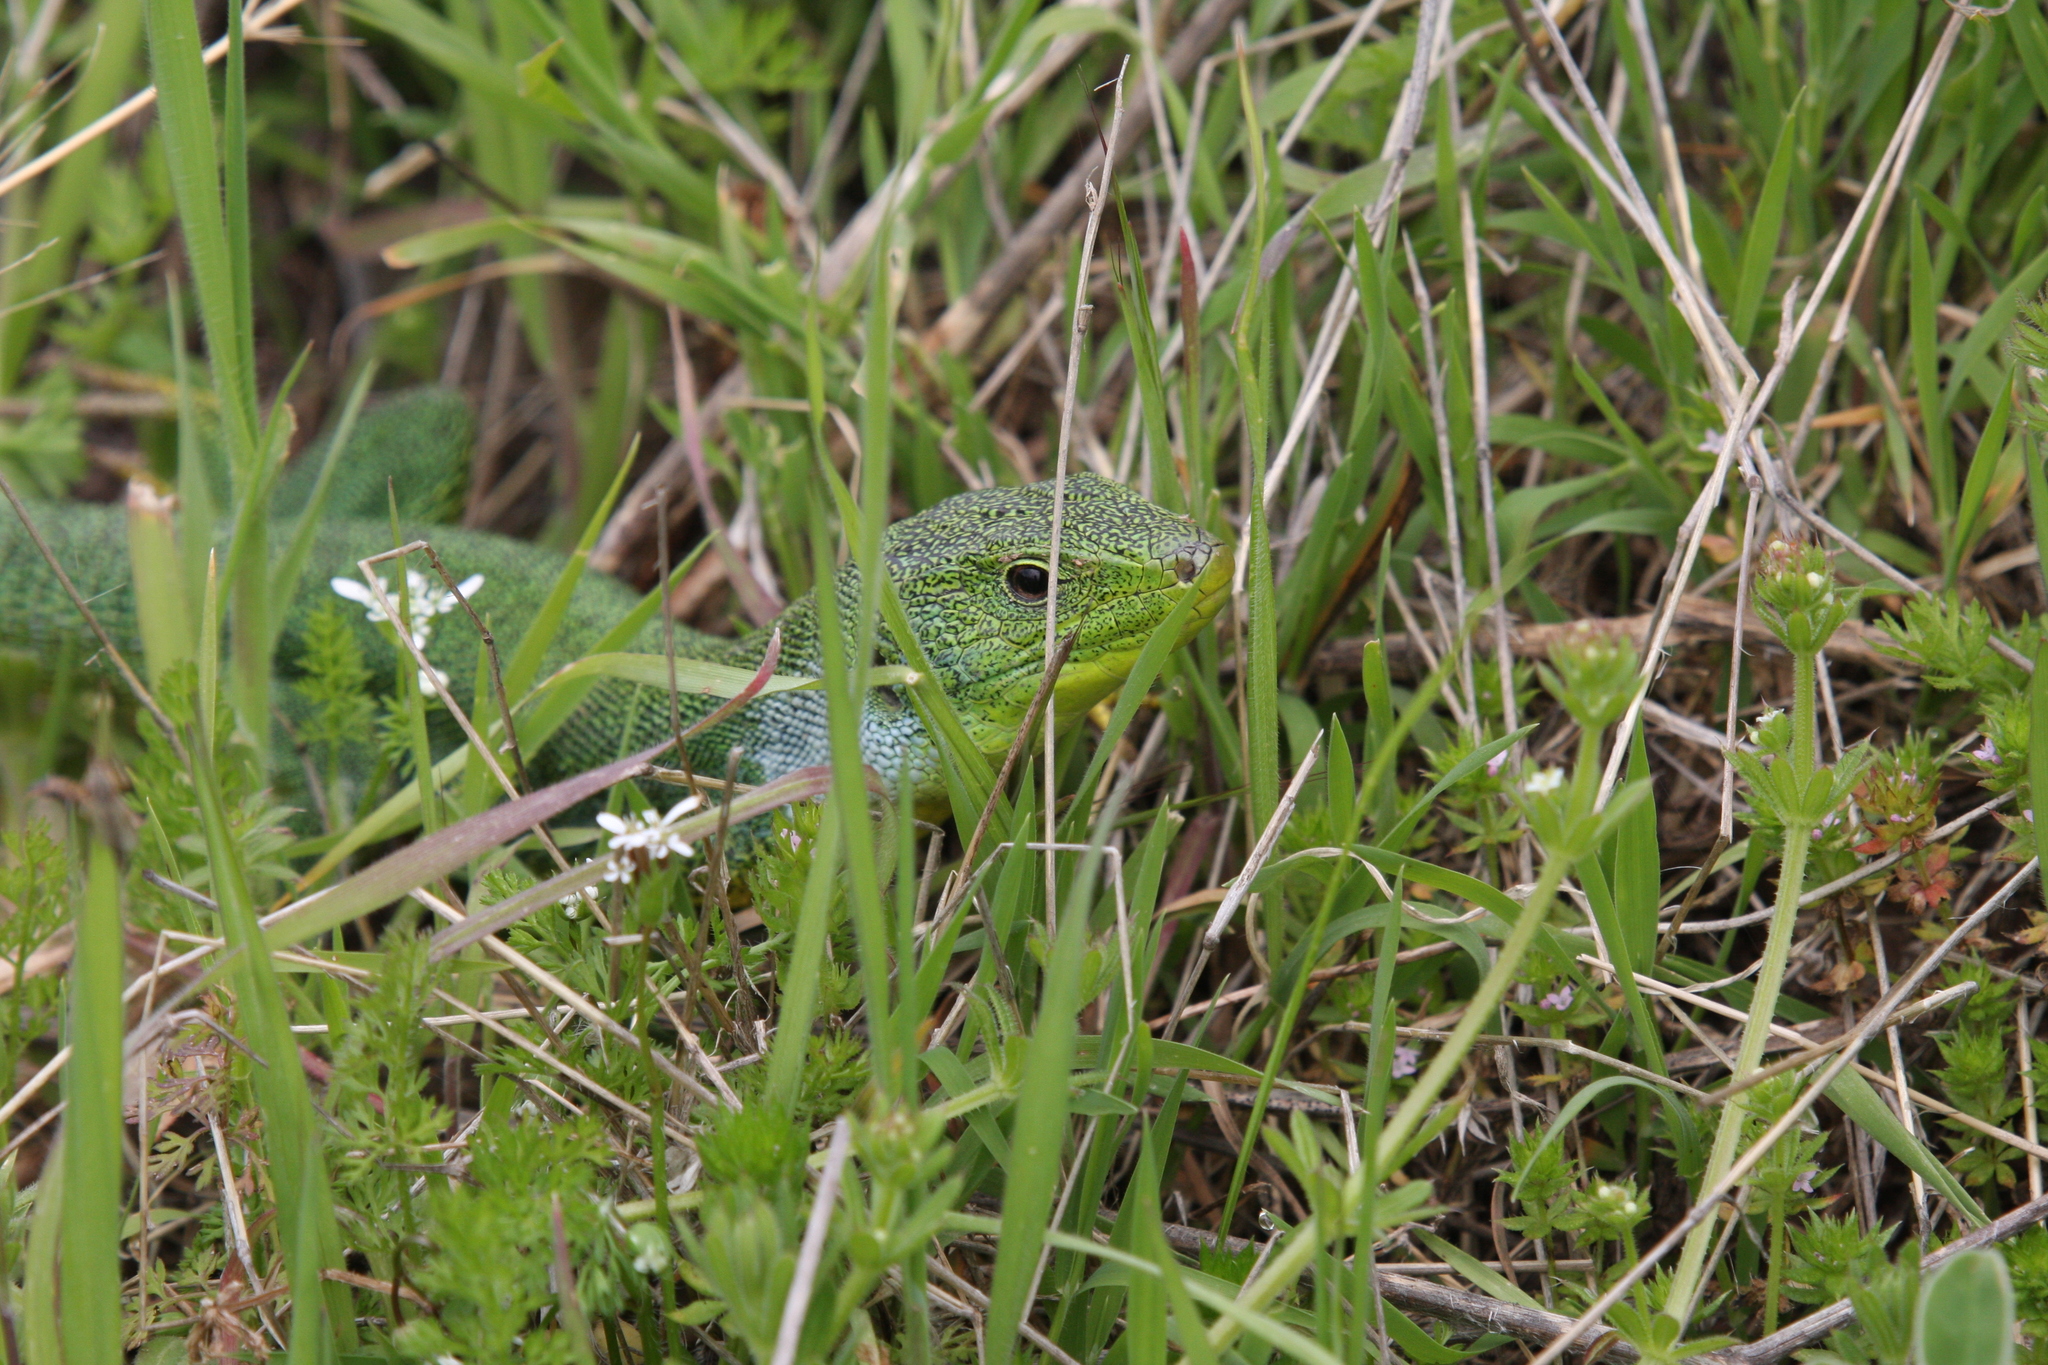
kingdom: Animalia
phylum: Chordata
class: Squamata
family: Lacertidae
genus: Lacerta
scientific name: Lacerta diplochondrodes
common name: Rhodos green lizard
